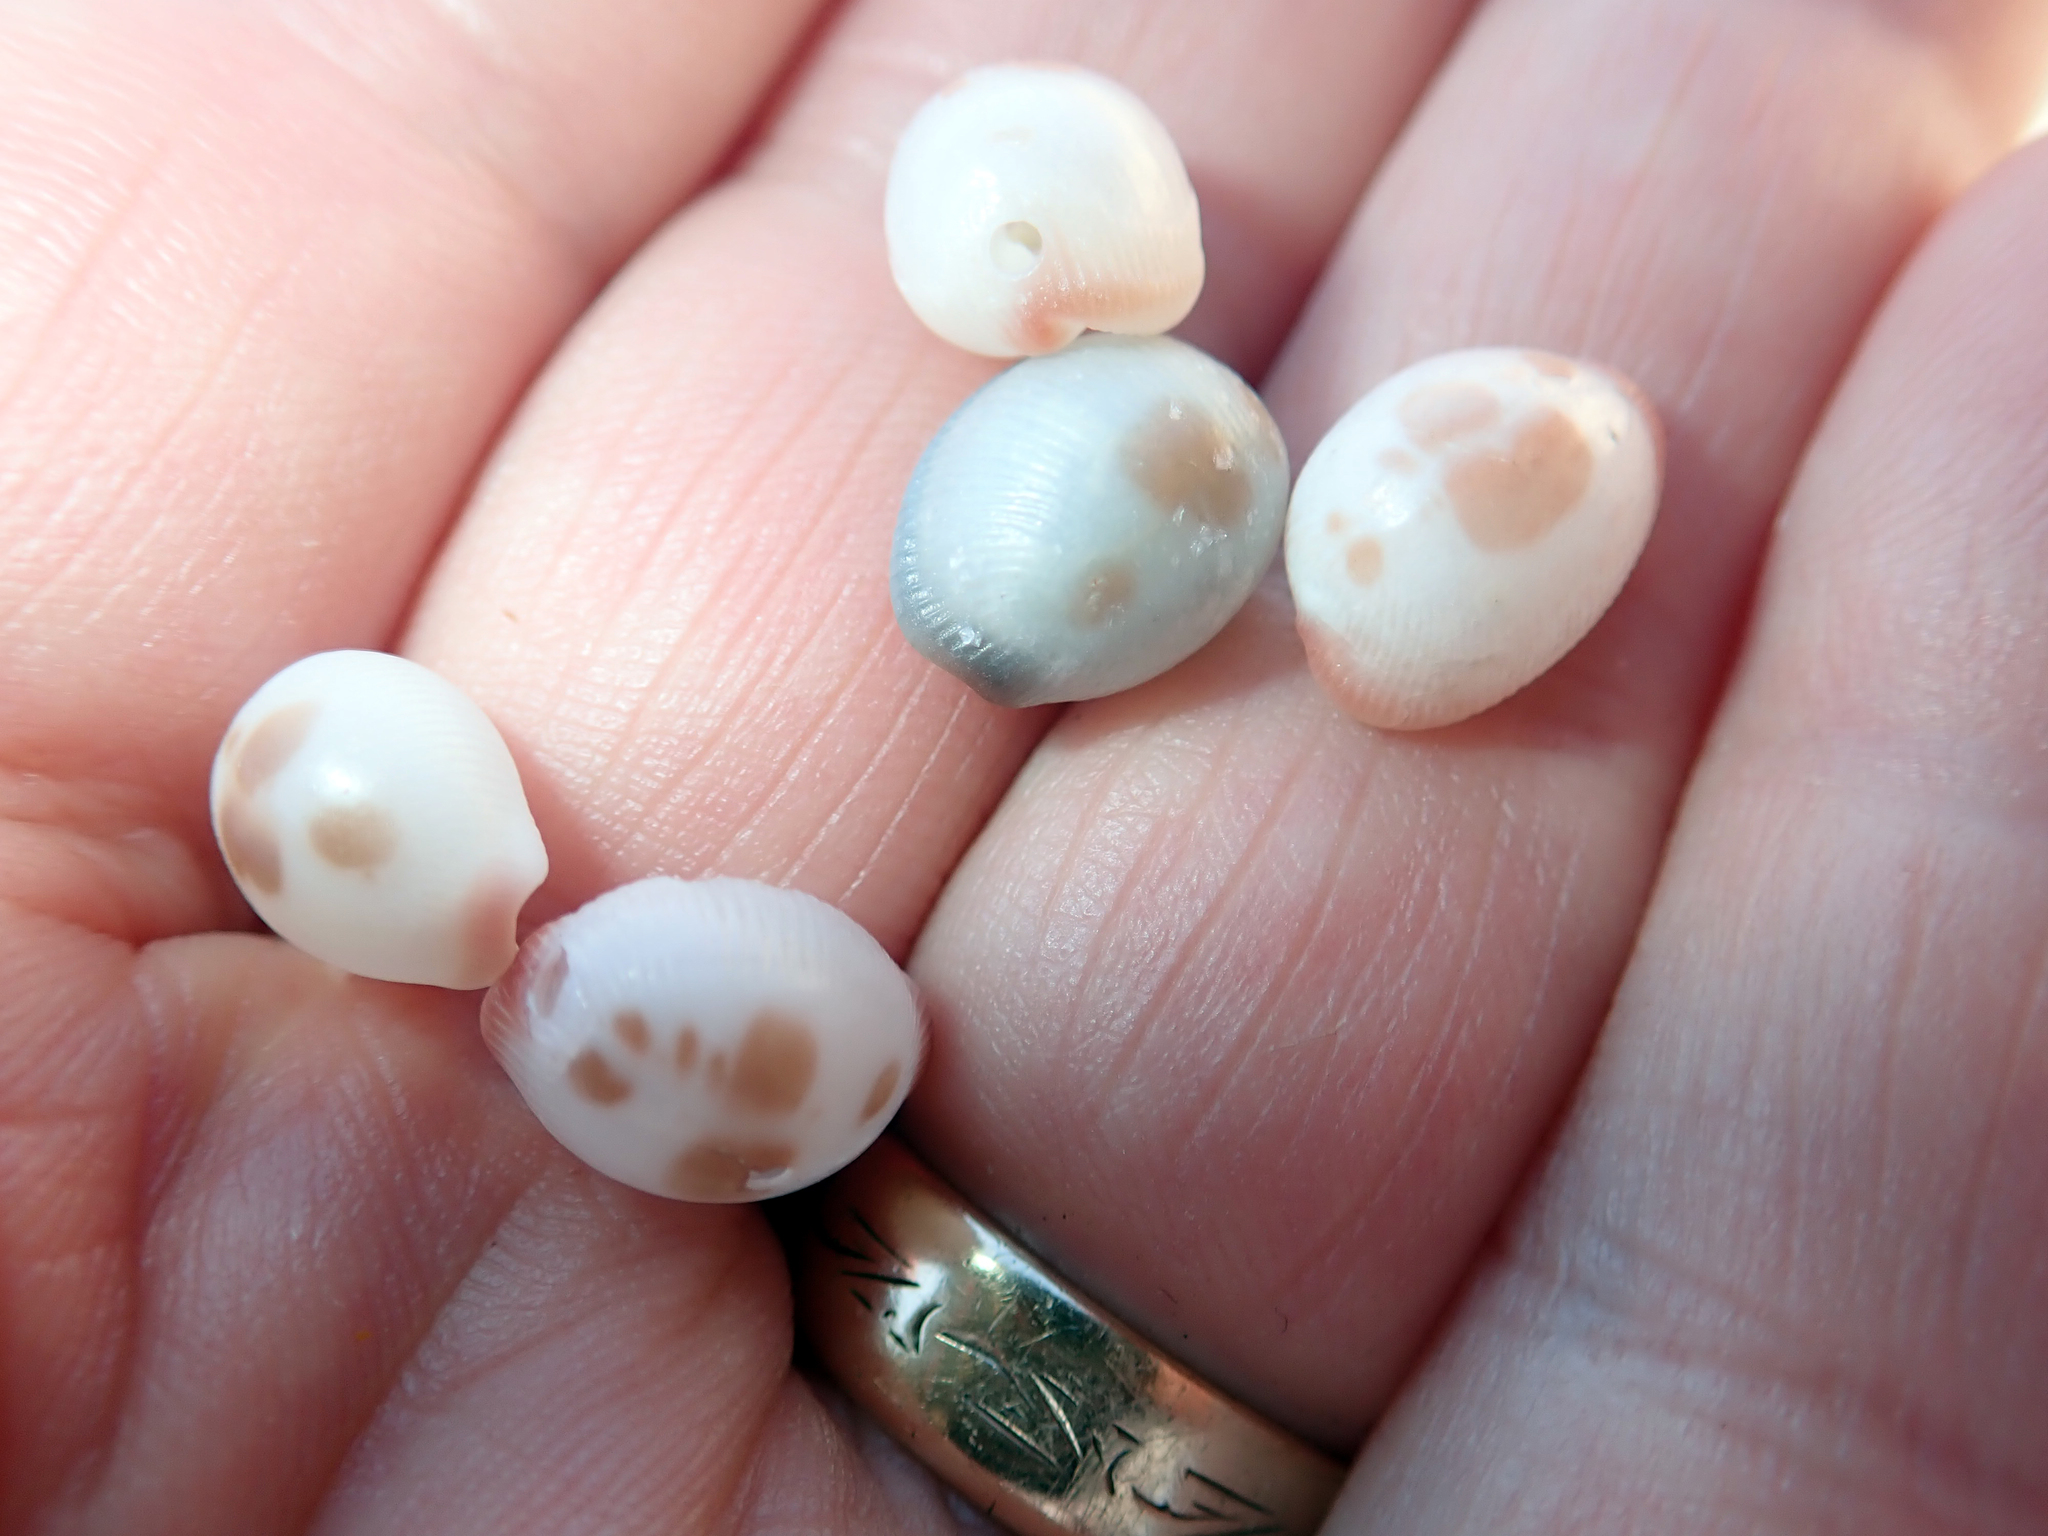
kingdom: Animalia
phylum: Mollusca
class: Gastropoda
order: Littorinimorpha
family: Triviidae
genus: Ellatrivia
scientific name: Ellatrivia merces
